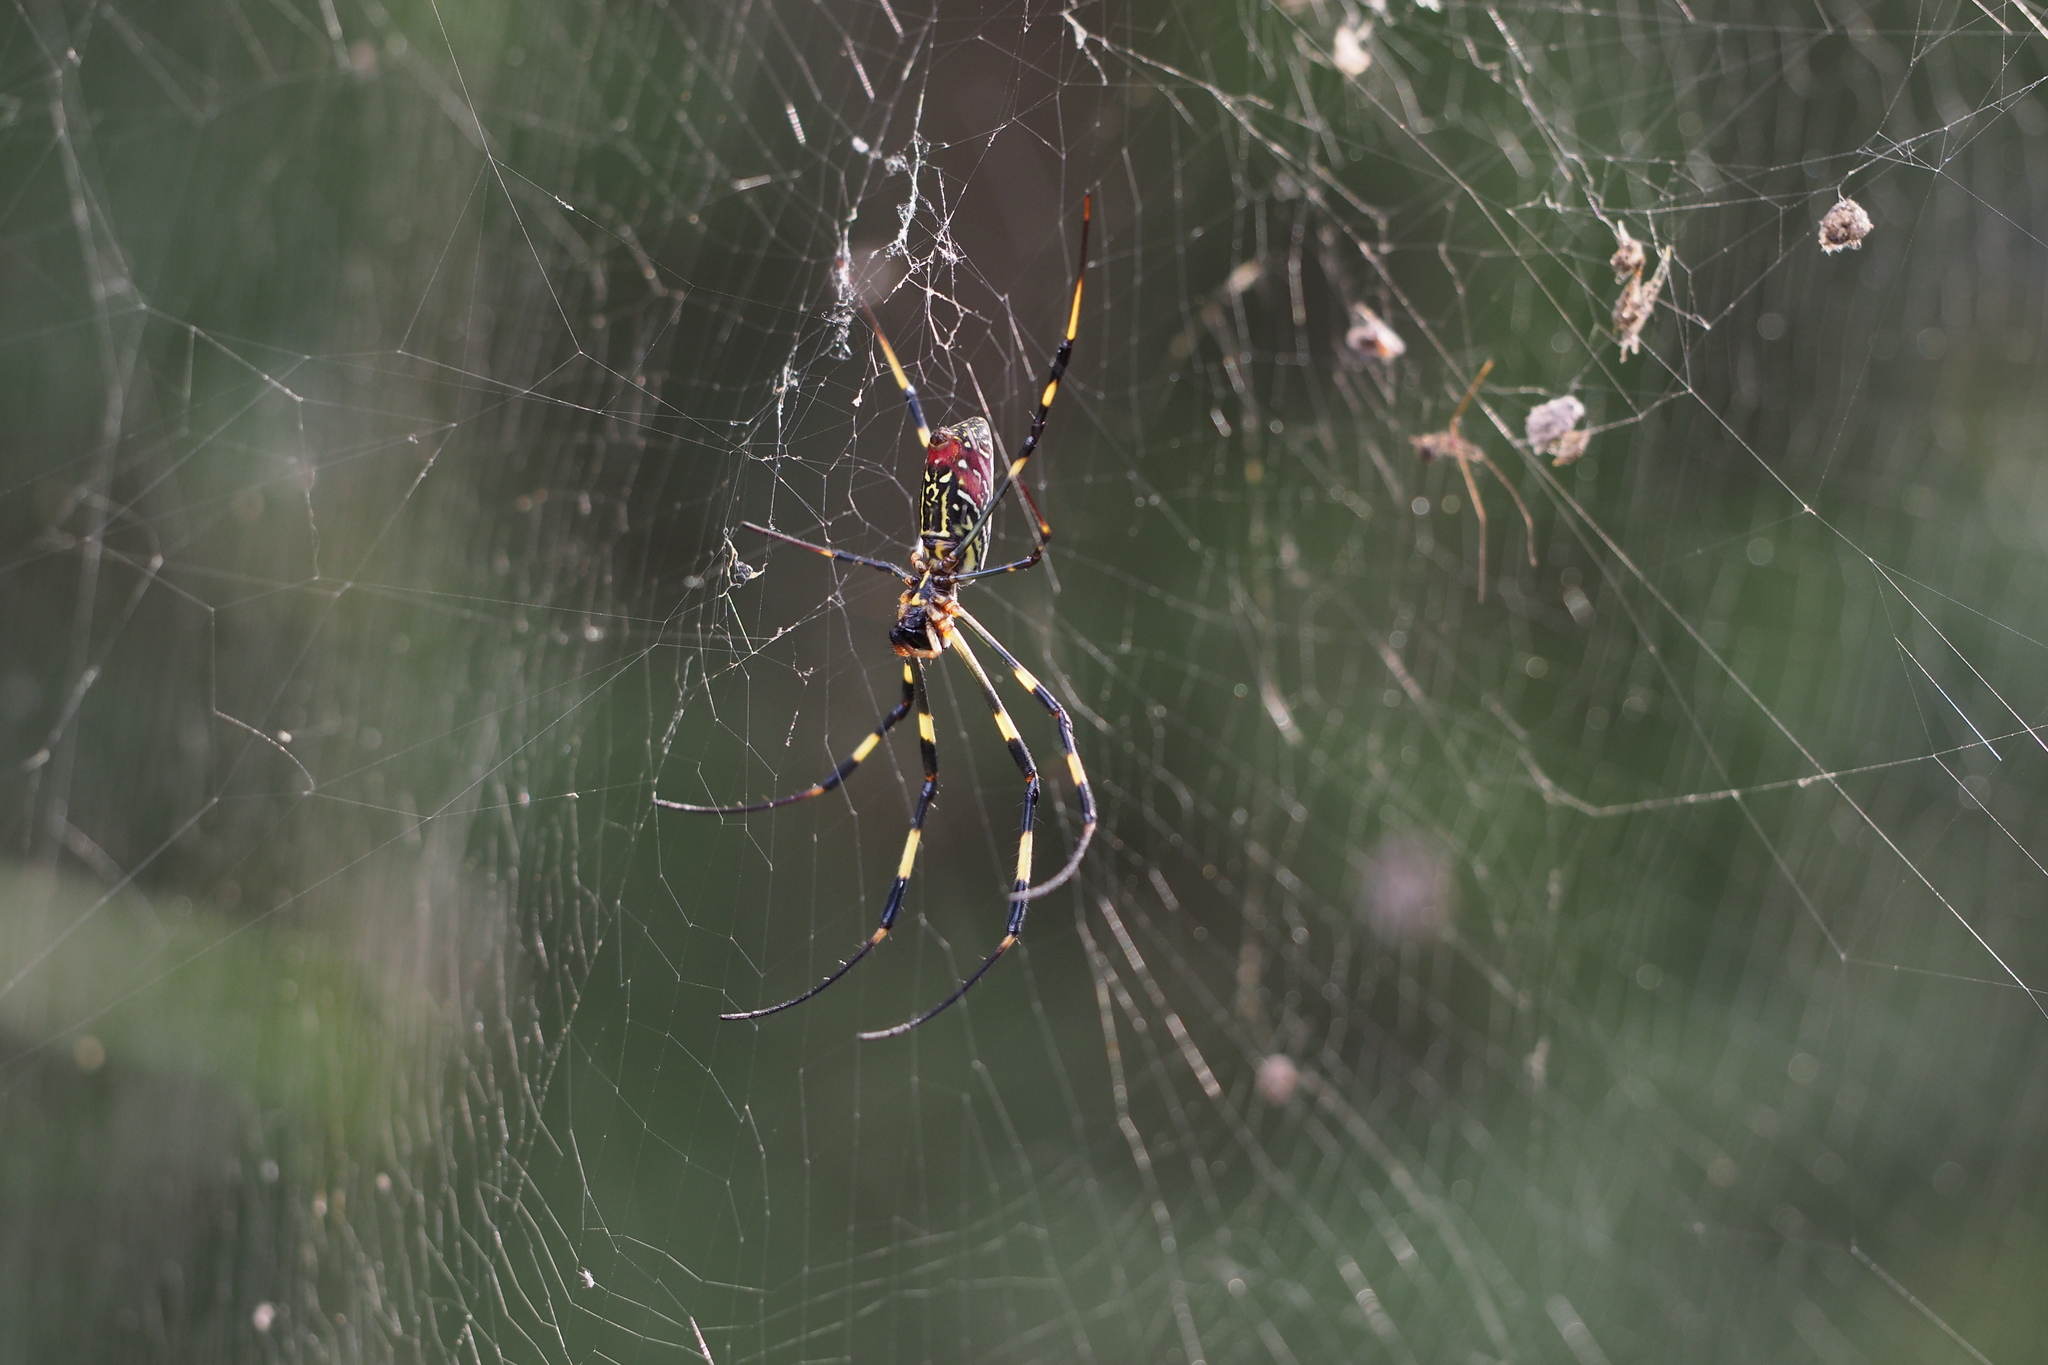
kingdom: Animalia
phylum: Arthropoda
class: Arachnida
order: Araneae
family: Araneidae
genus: Trichonephila
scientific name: Trichonephila clavata
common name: Jorō spider
